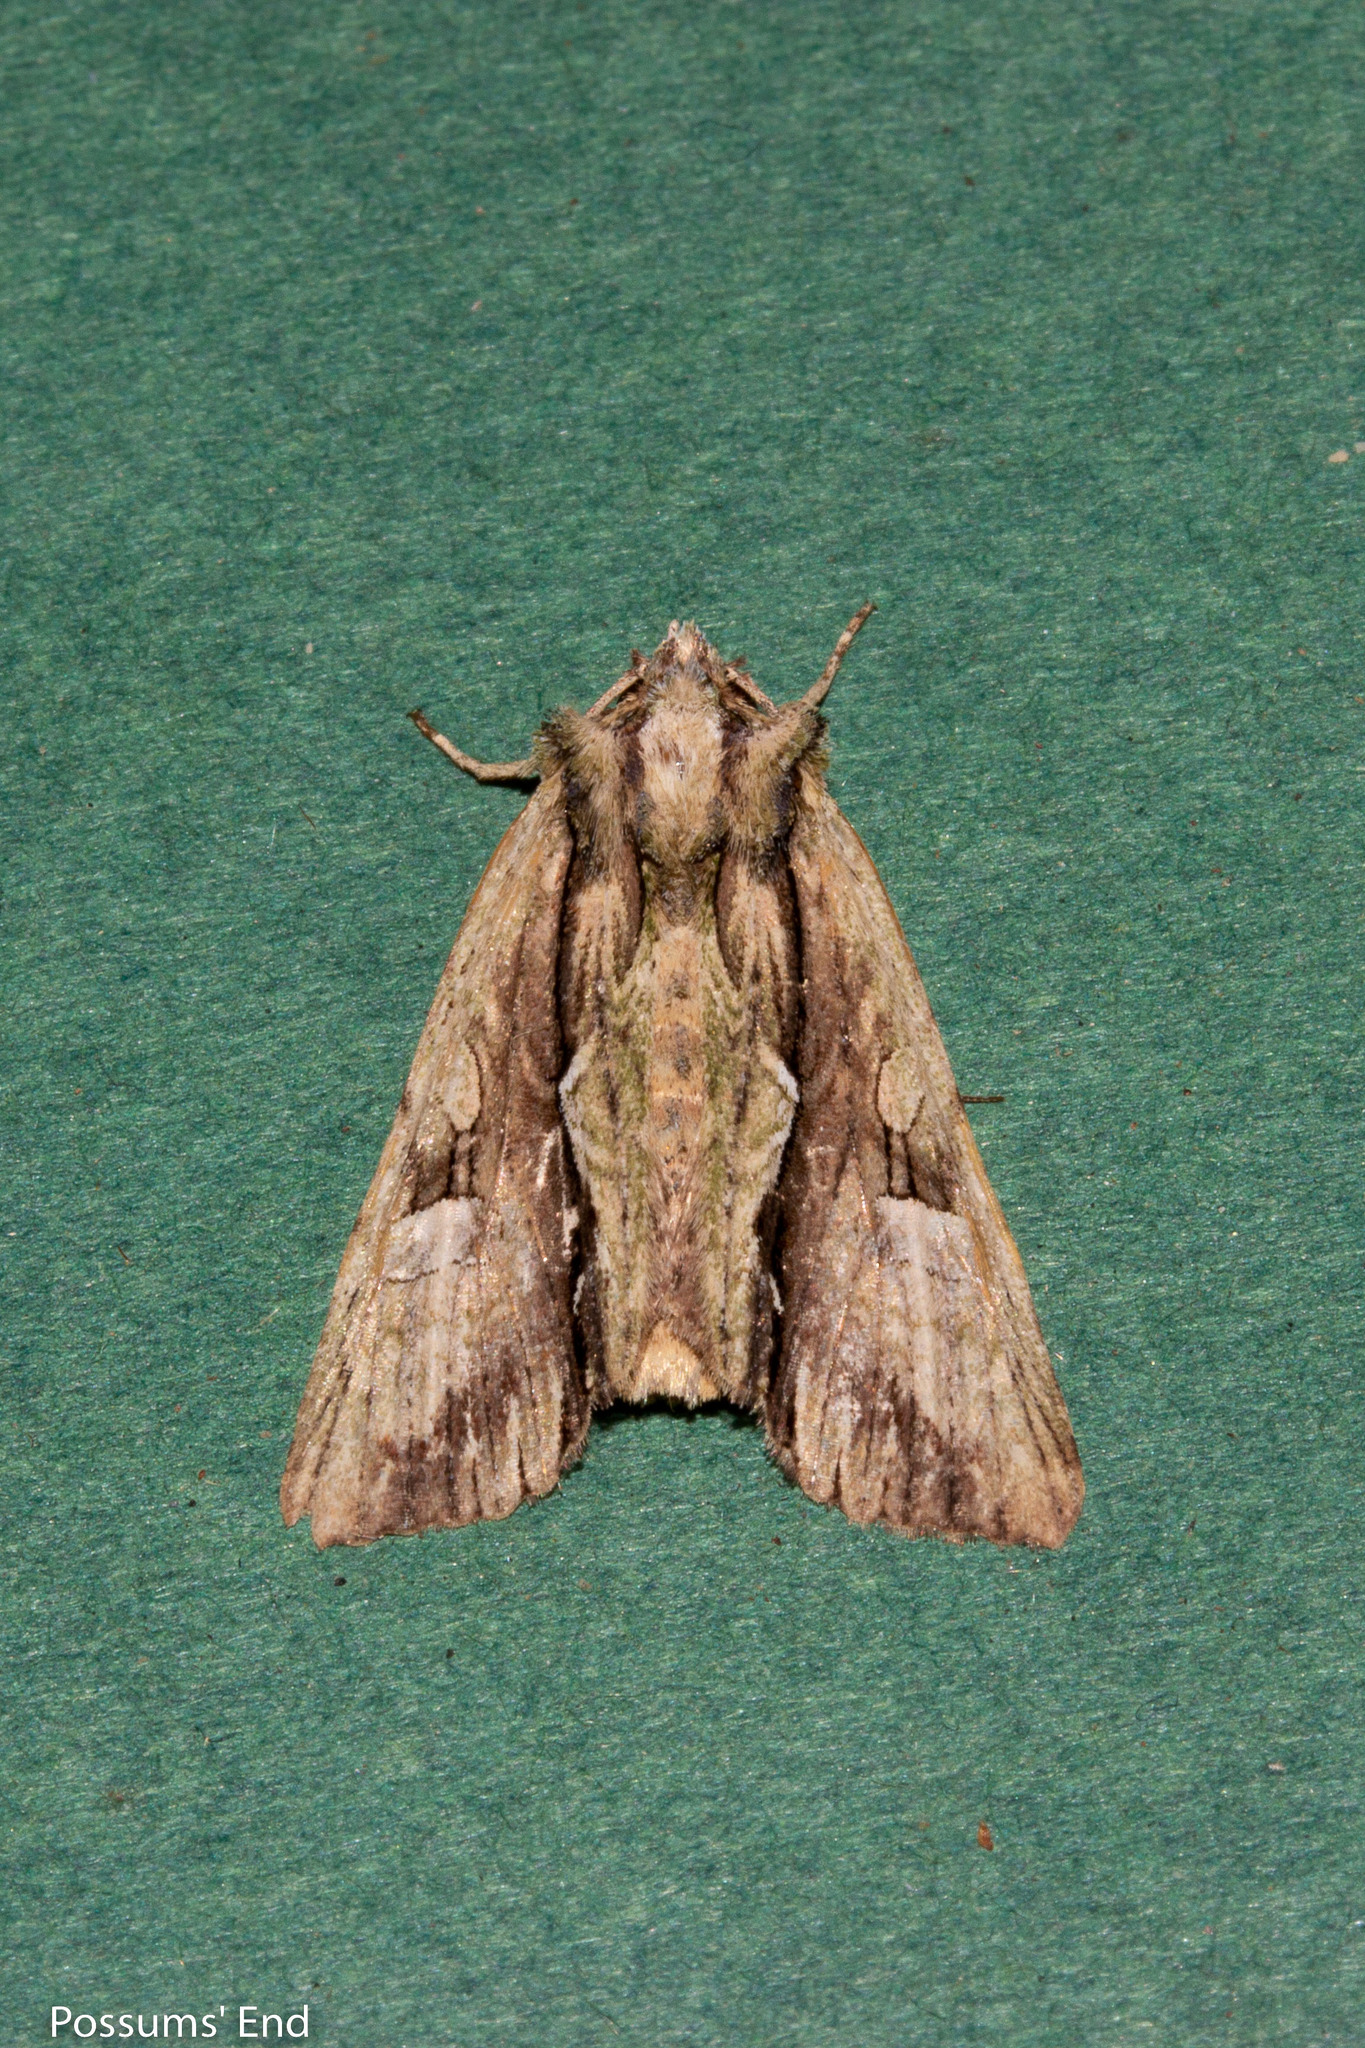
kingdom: Animalia
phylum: Arthropoda
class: Insecta
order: Lepidoptera
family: Noctuidae
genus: Meterana
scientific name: Meterana decorata
